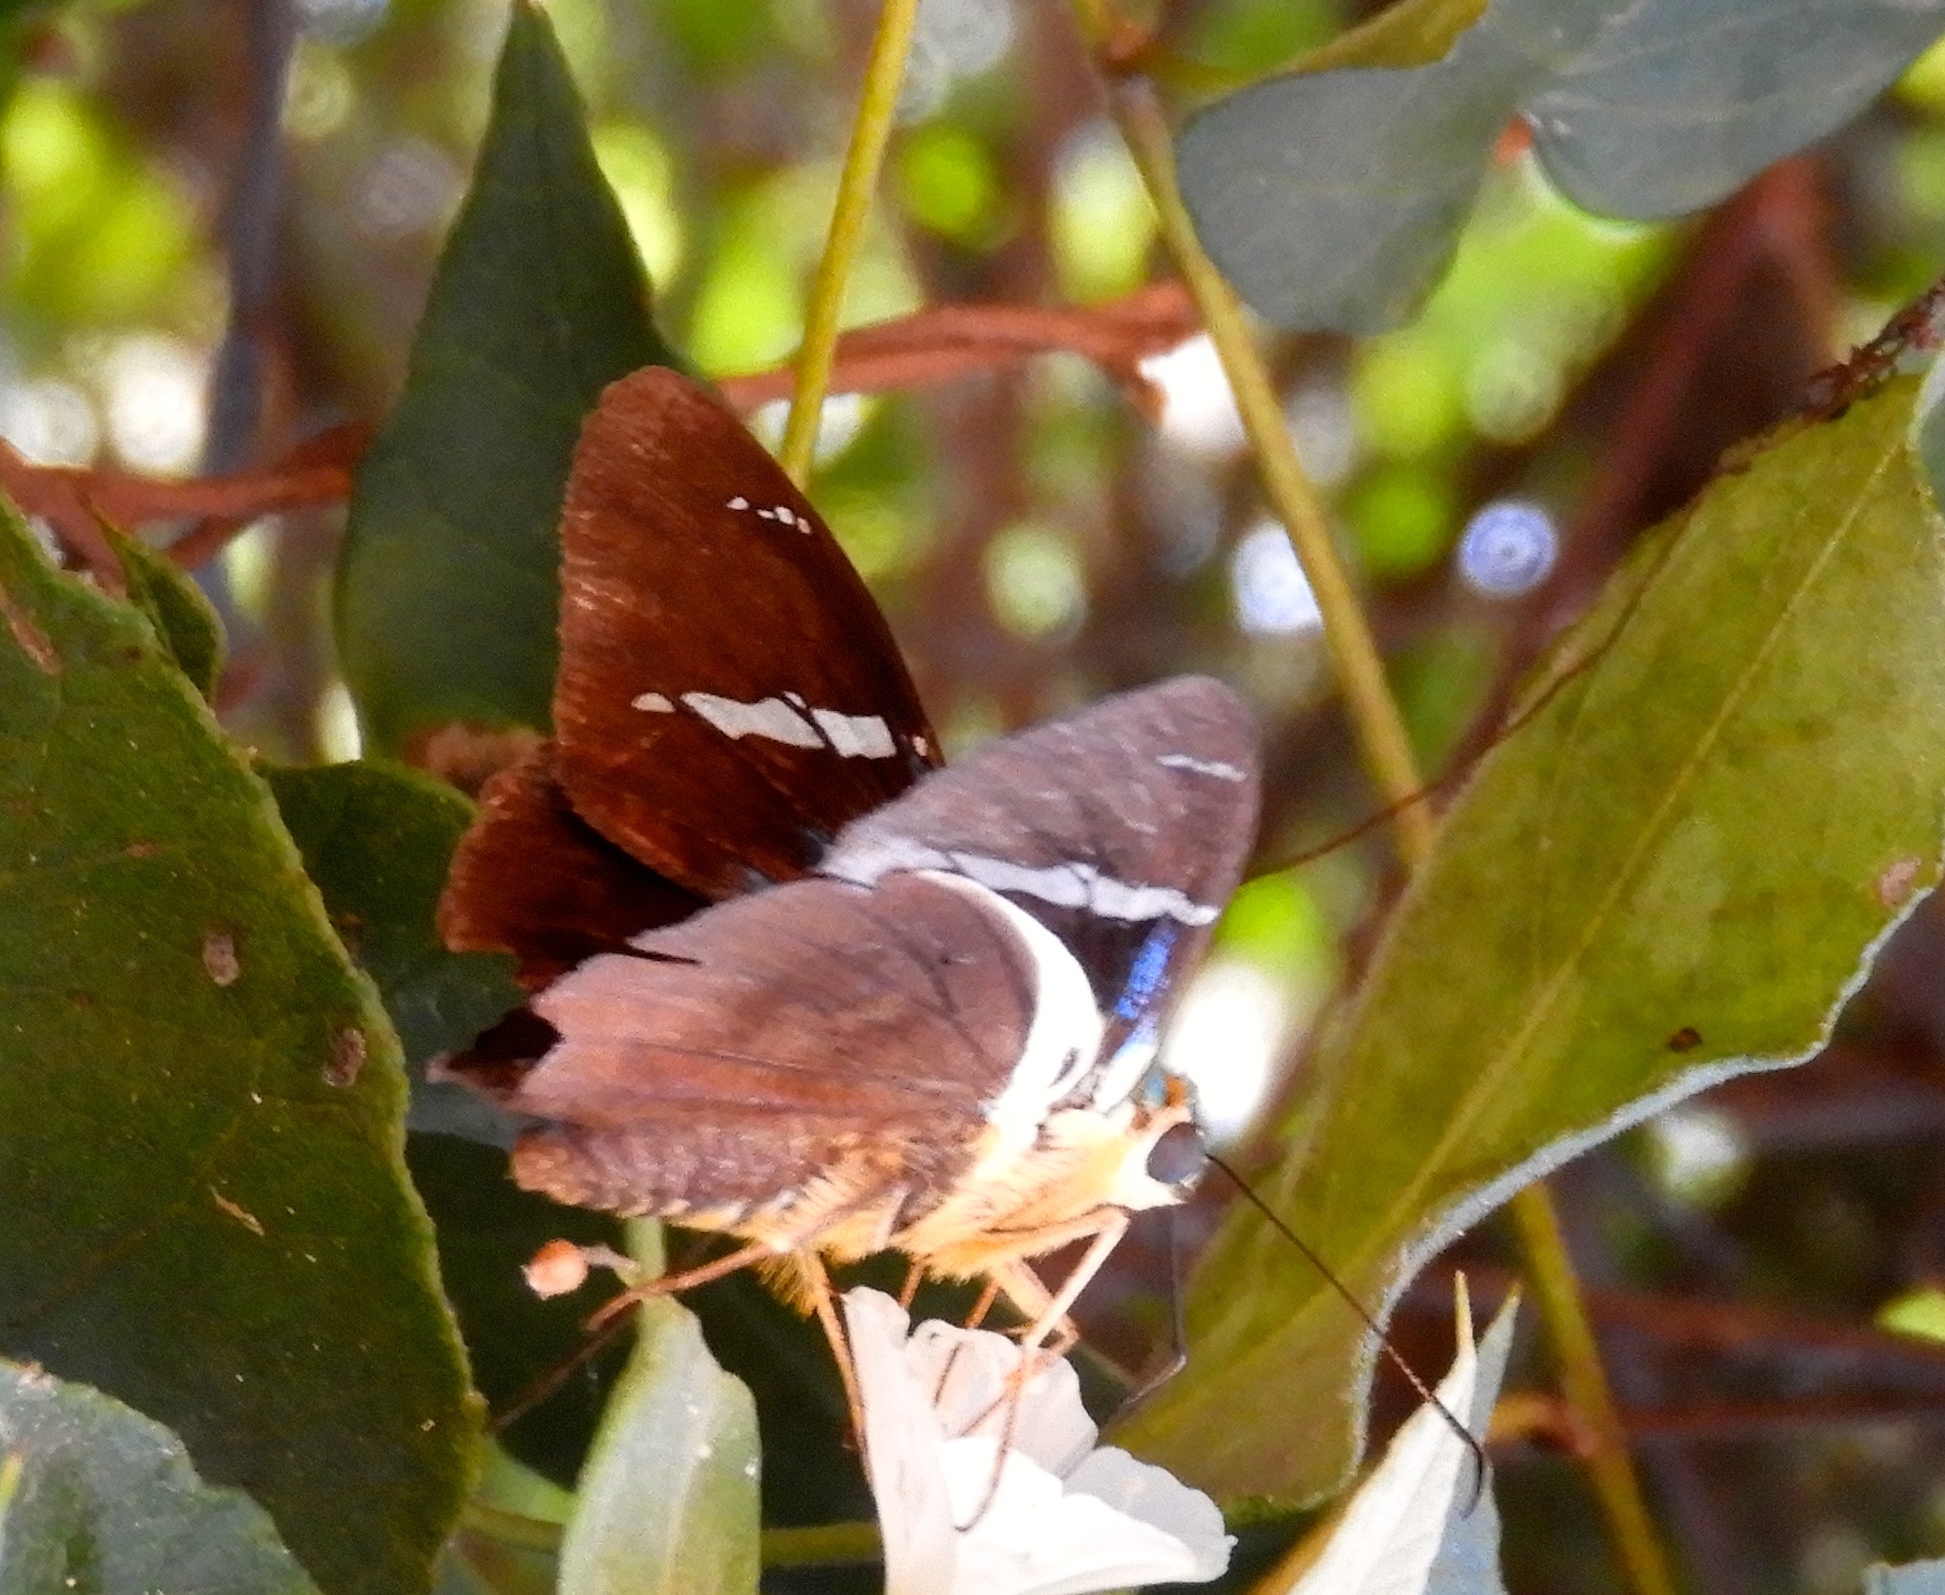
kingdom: Animalia
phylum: Arthropoda
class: Insecta
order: Lepidoptera
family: Hesperiidae
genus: Astraptes
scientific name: Astraptes fulgerator
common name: Two-barred flasher
